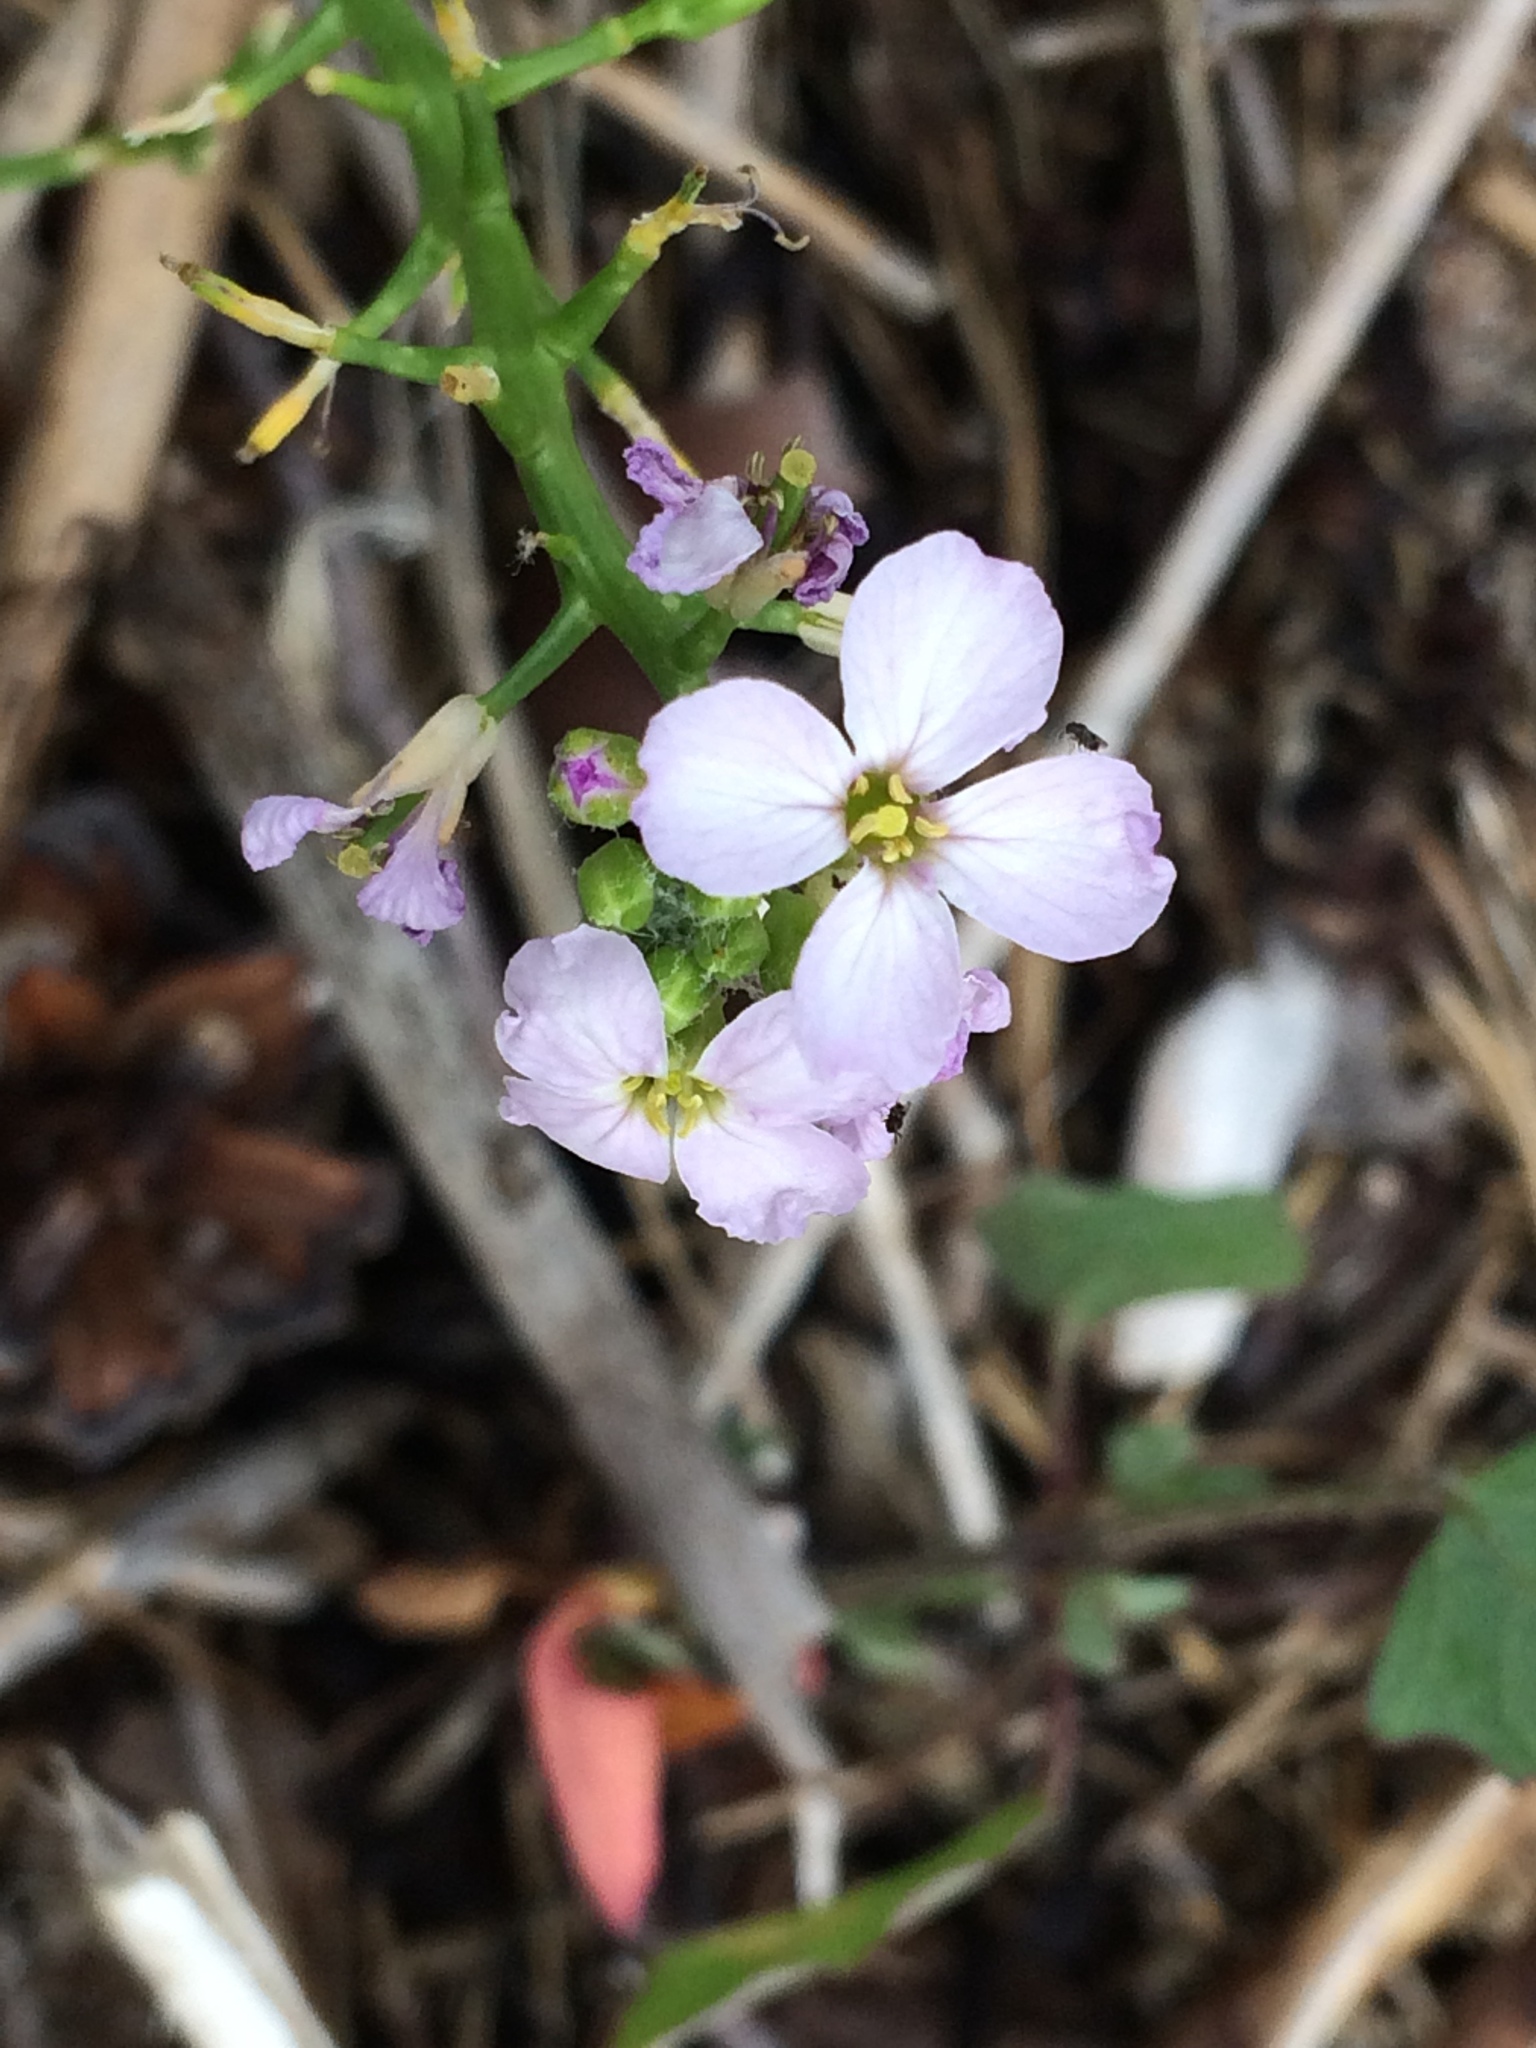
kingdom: Plantae
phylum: Tracheophyta
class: Magnoliopsida
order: Brassicales
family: Brassicaceae
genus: Cakile
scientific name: Cakile maritima
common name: Sea rocket
